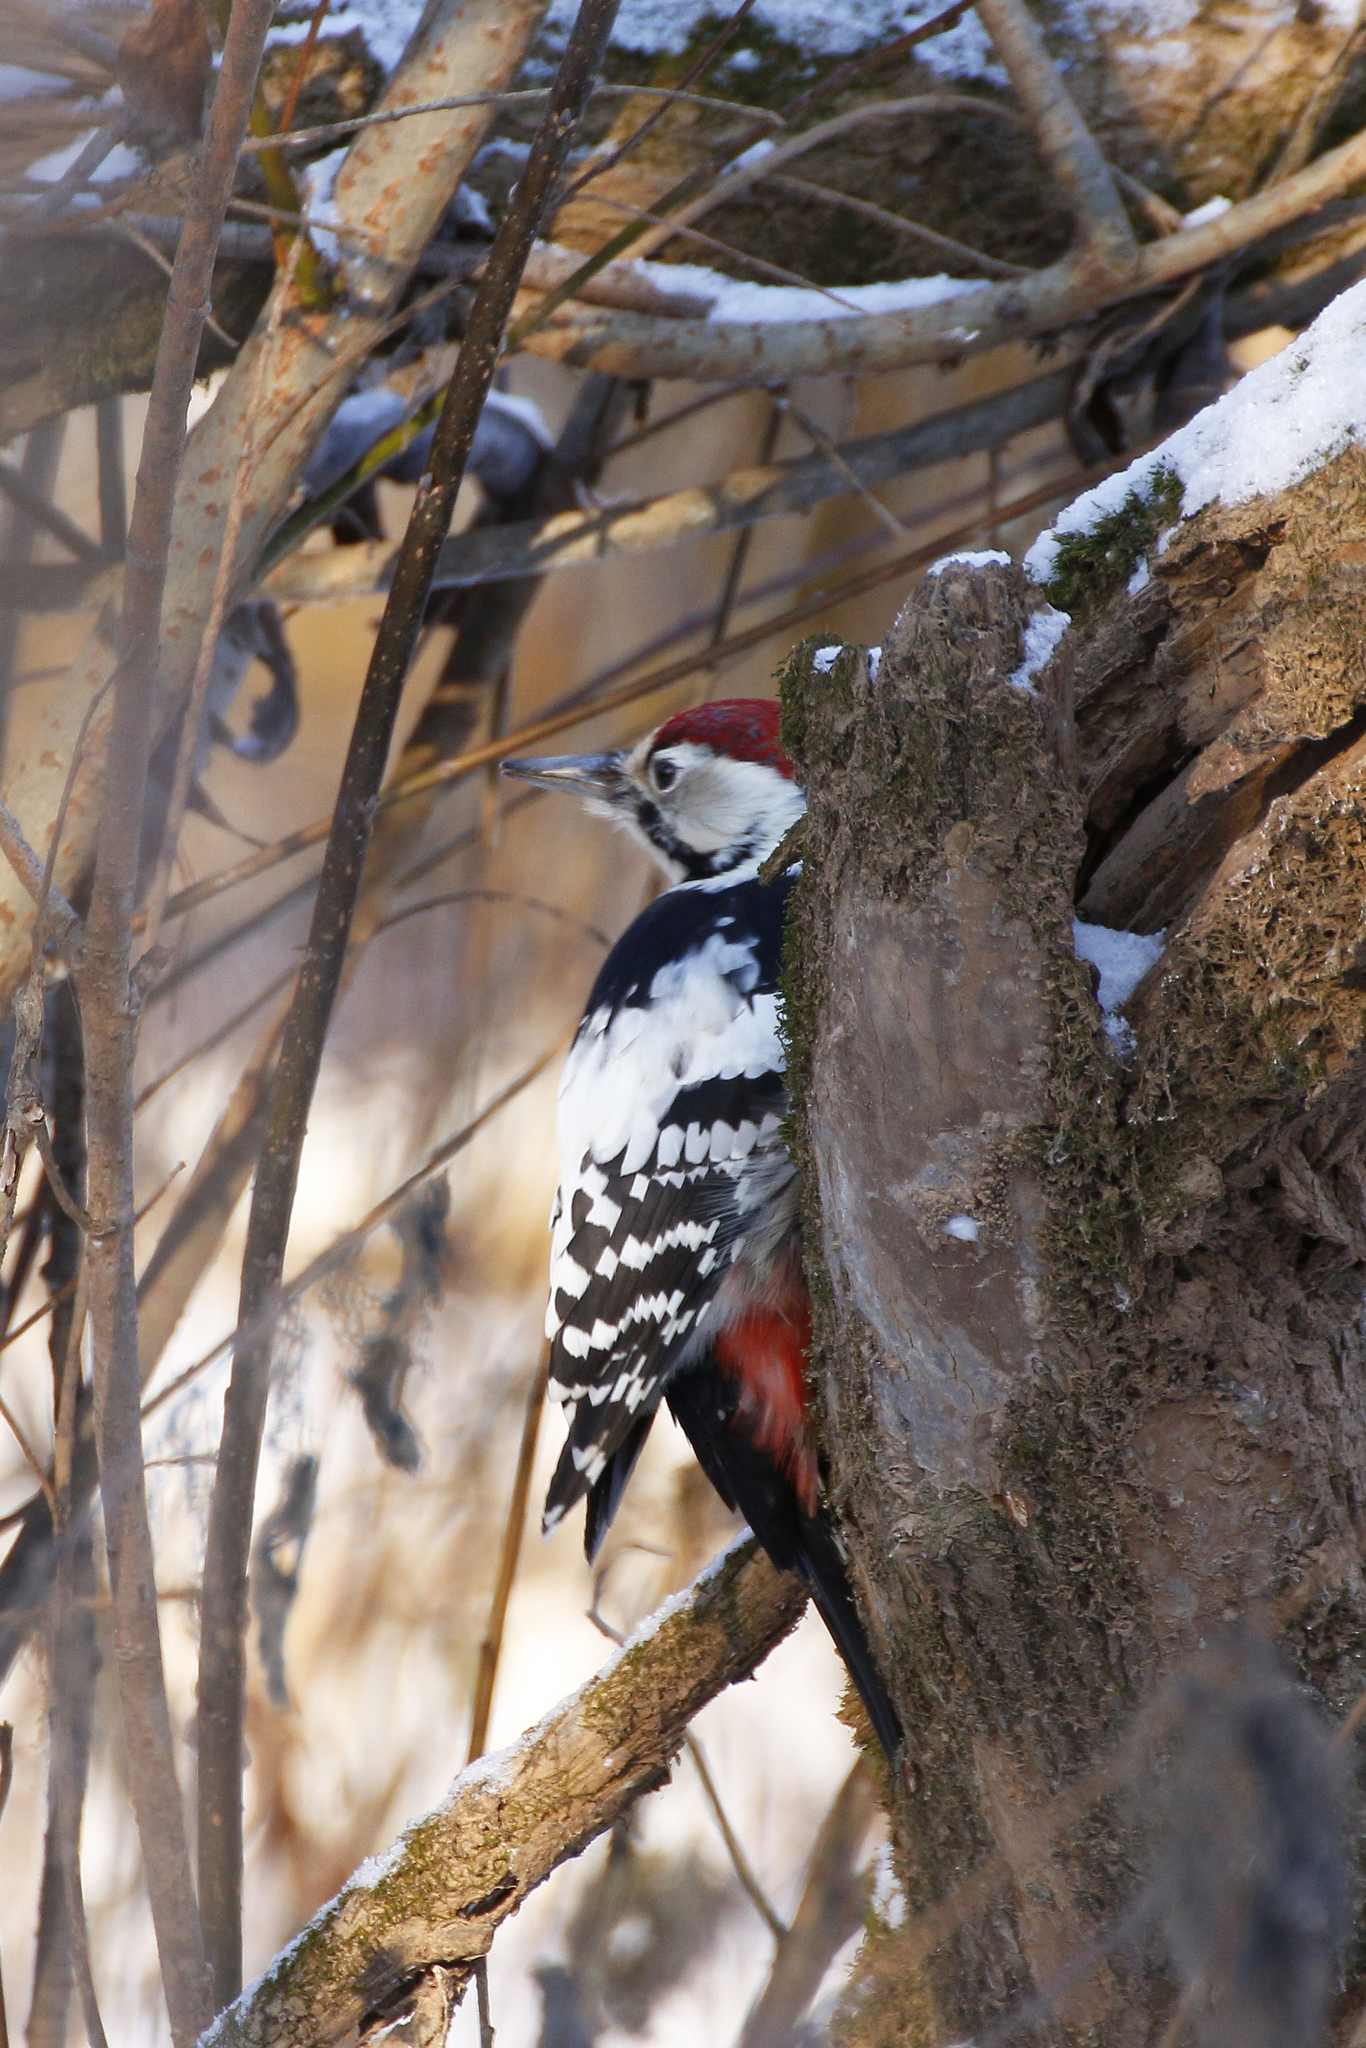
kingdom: Animalia
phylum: Chordata
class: Aves
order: Piciformes
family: Picidae
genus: Dendrocopos
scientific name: Dendrocopos leucotos
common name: White-backed woodpecker
